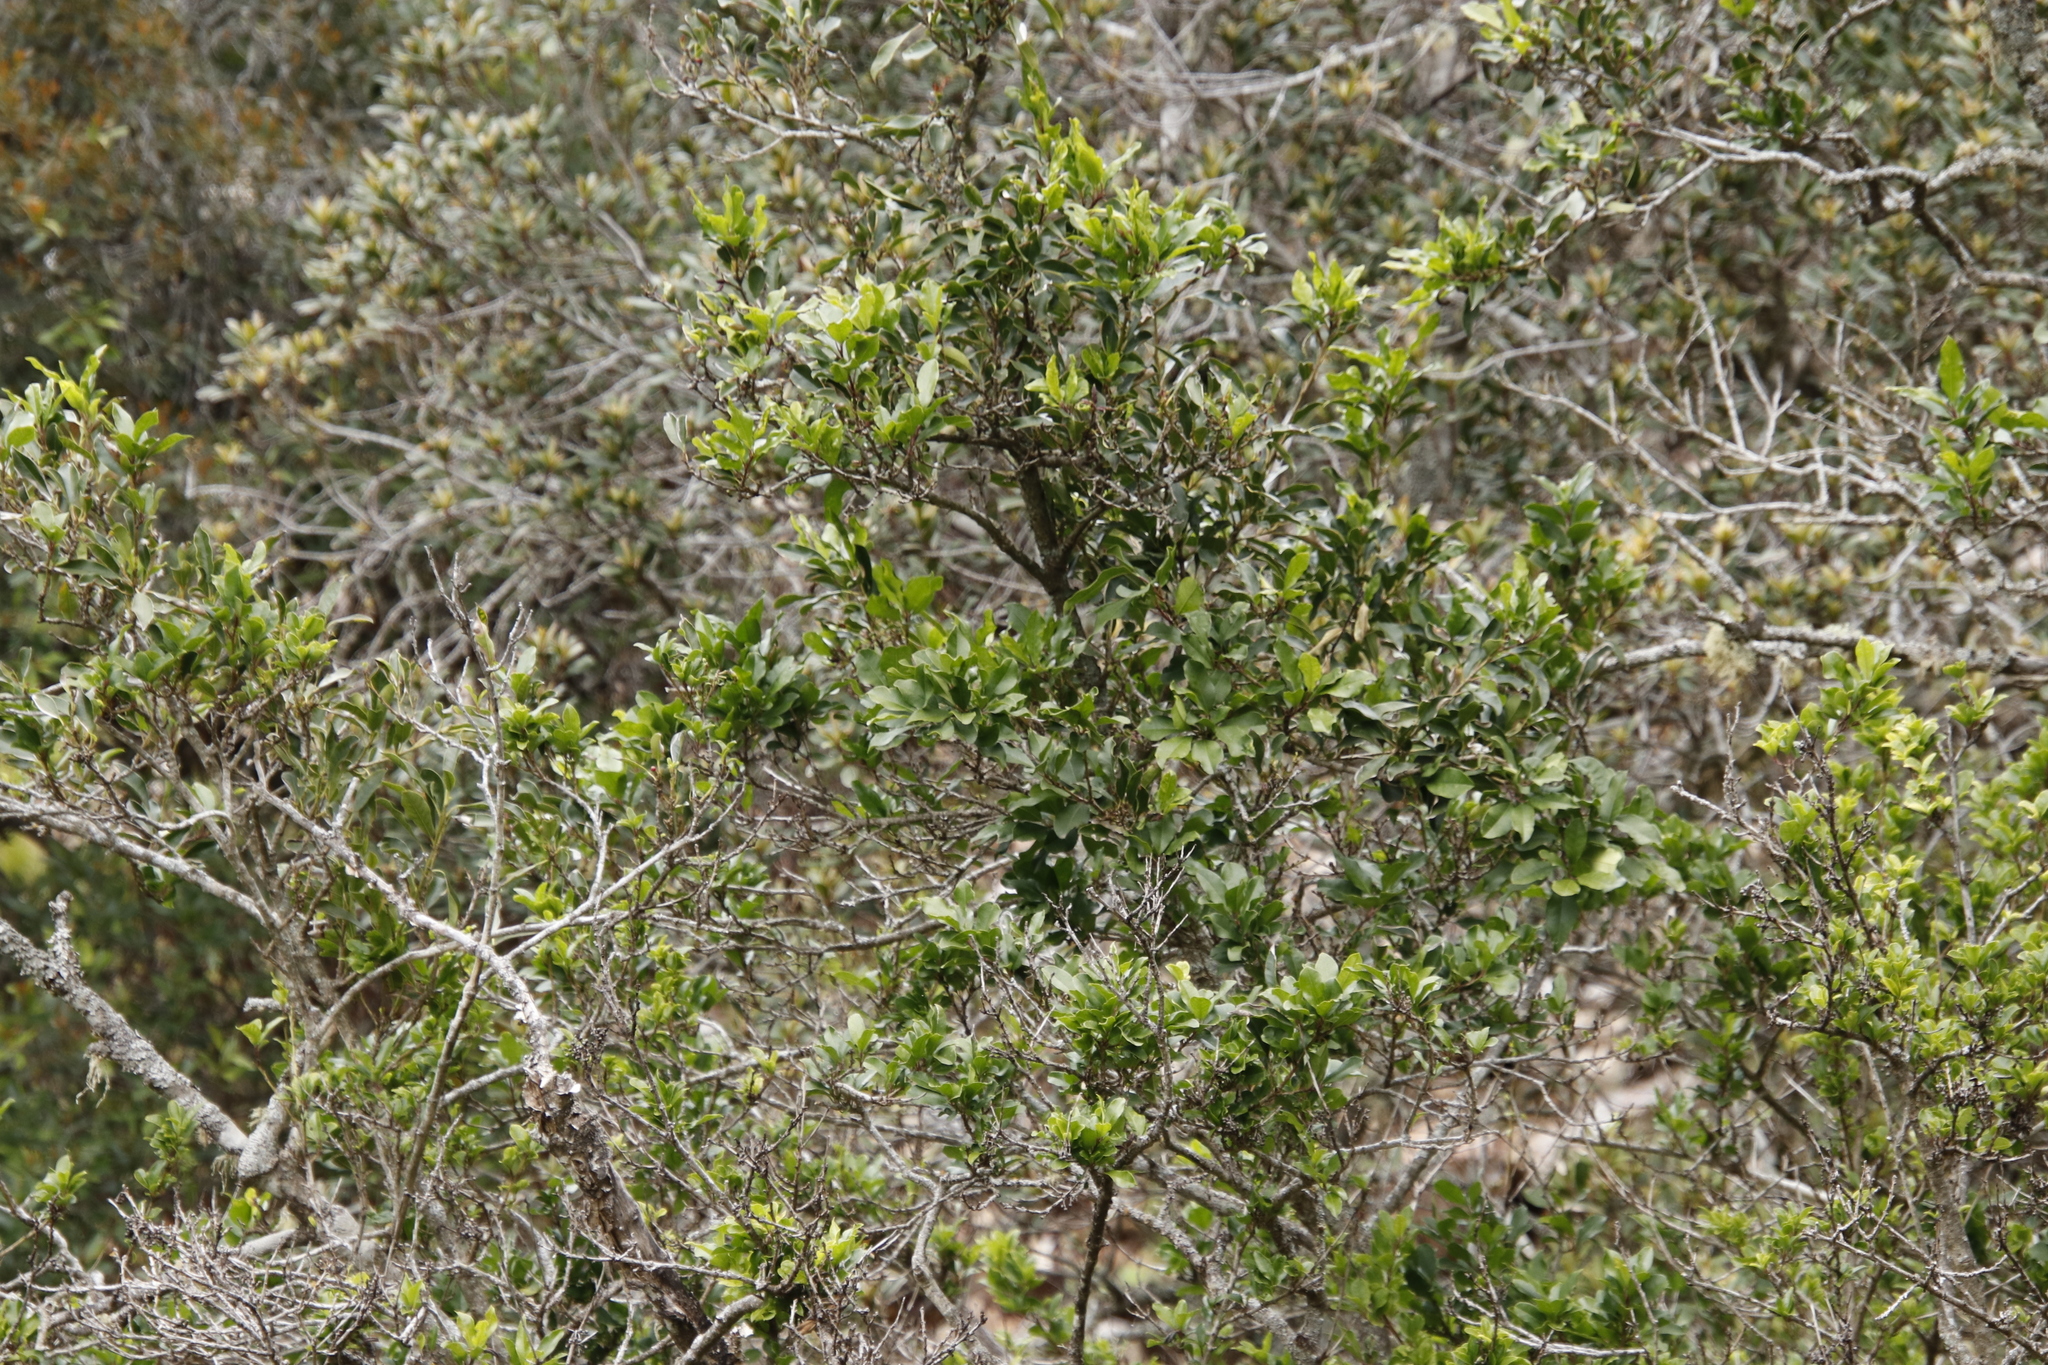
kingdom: Plantae
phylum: Tracheophyta
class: Magnoliopsida
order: Aquifoliales
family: Aquifoliaceae
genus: Ilex
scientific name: Ilex mitis
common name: African holly
